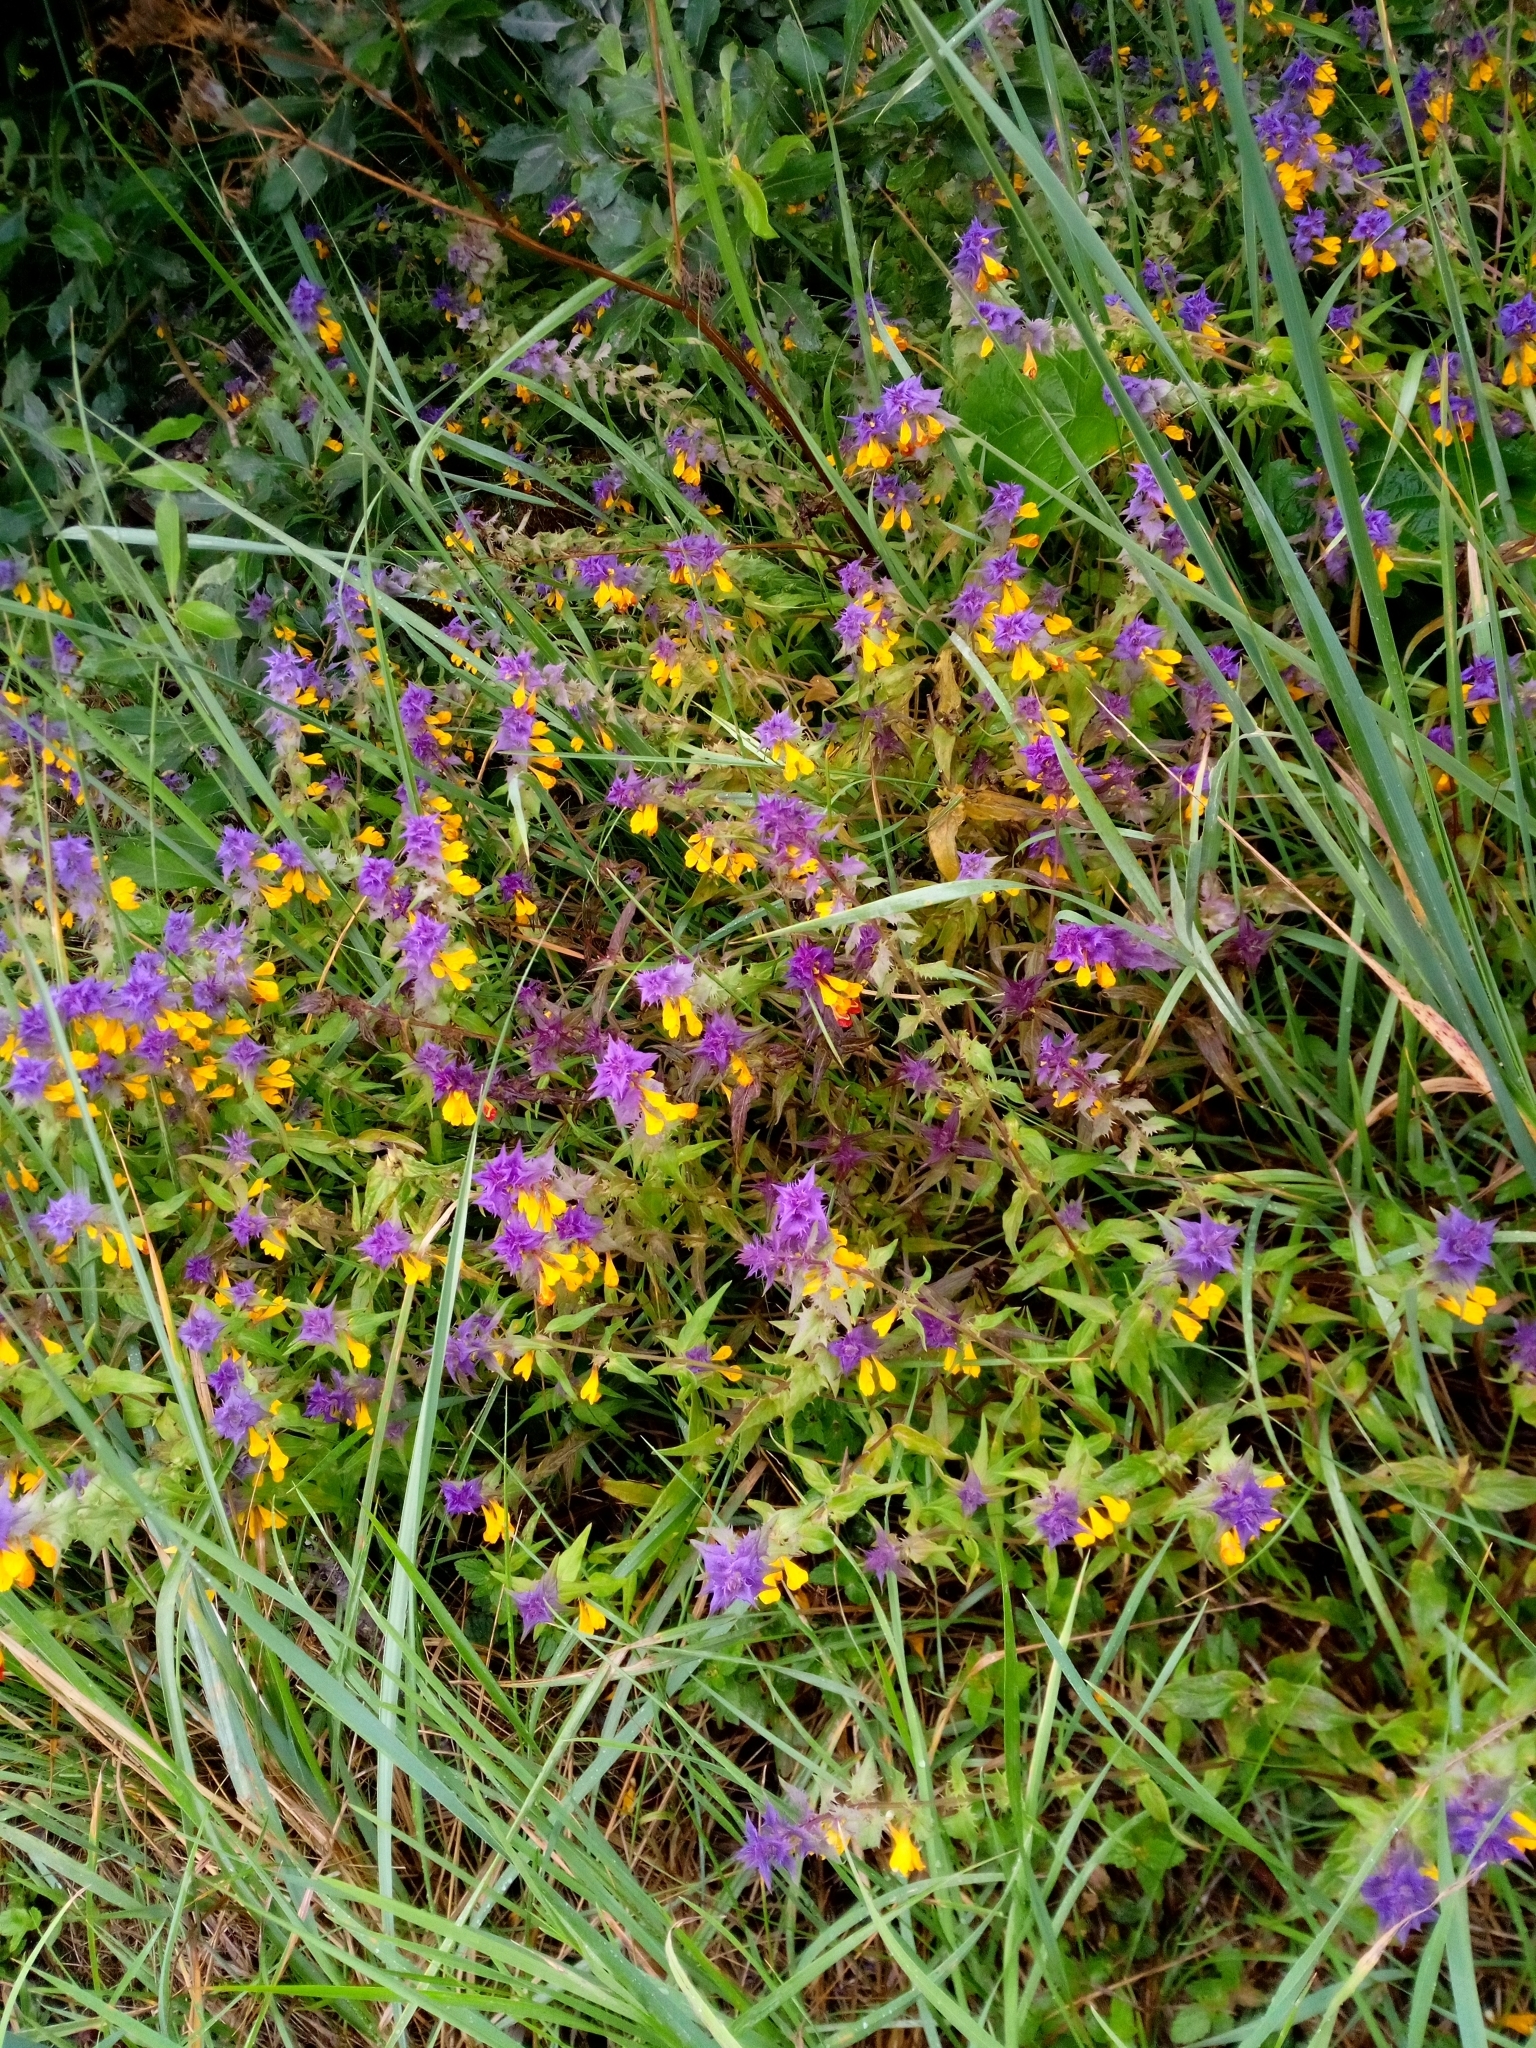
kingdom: Plantae
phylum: Tracheophyta
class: Magnoliopsida
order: Lamiales
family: Orobanchaceae
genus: Melampyrum
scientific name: Melampyrum nemorosum
